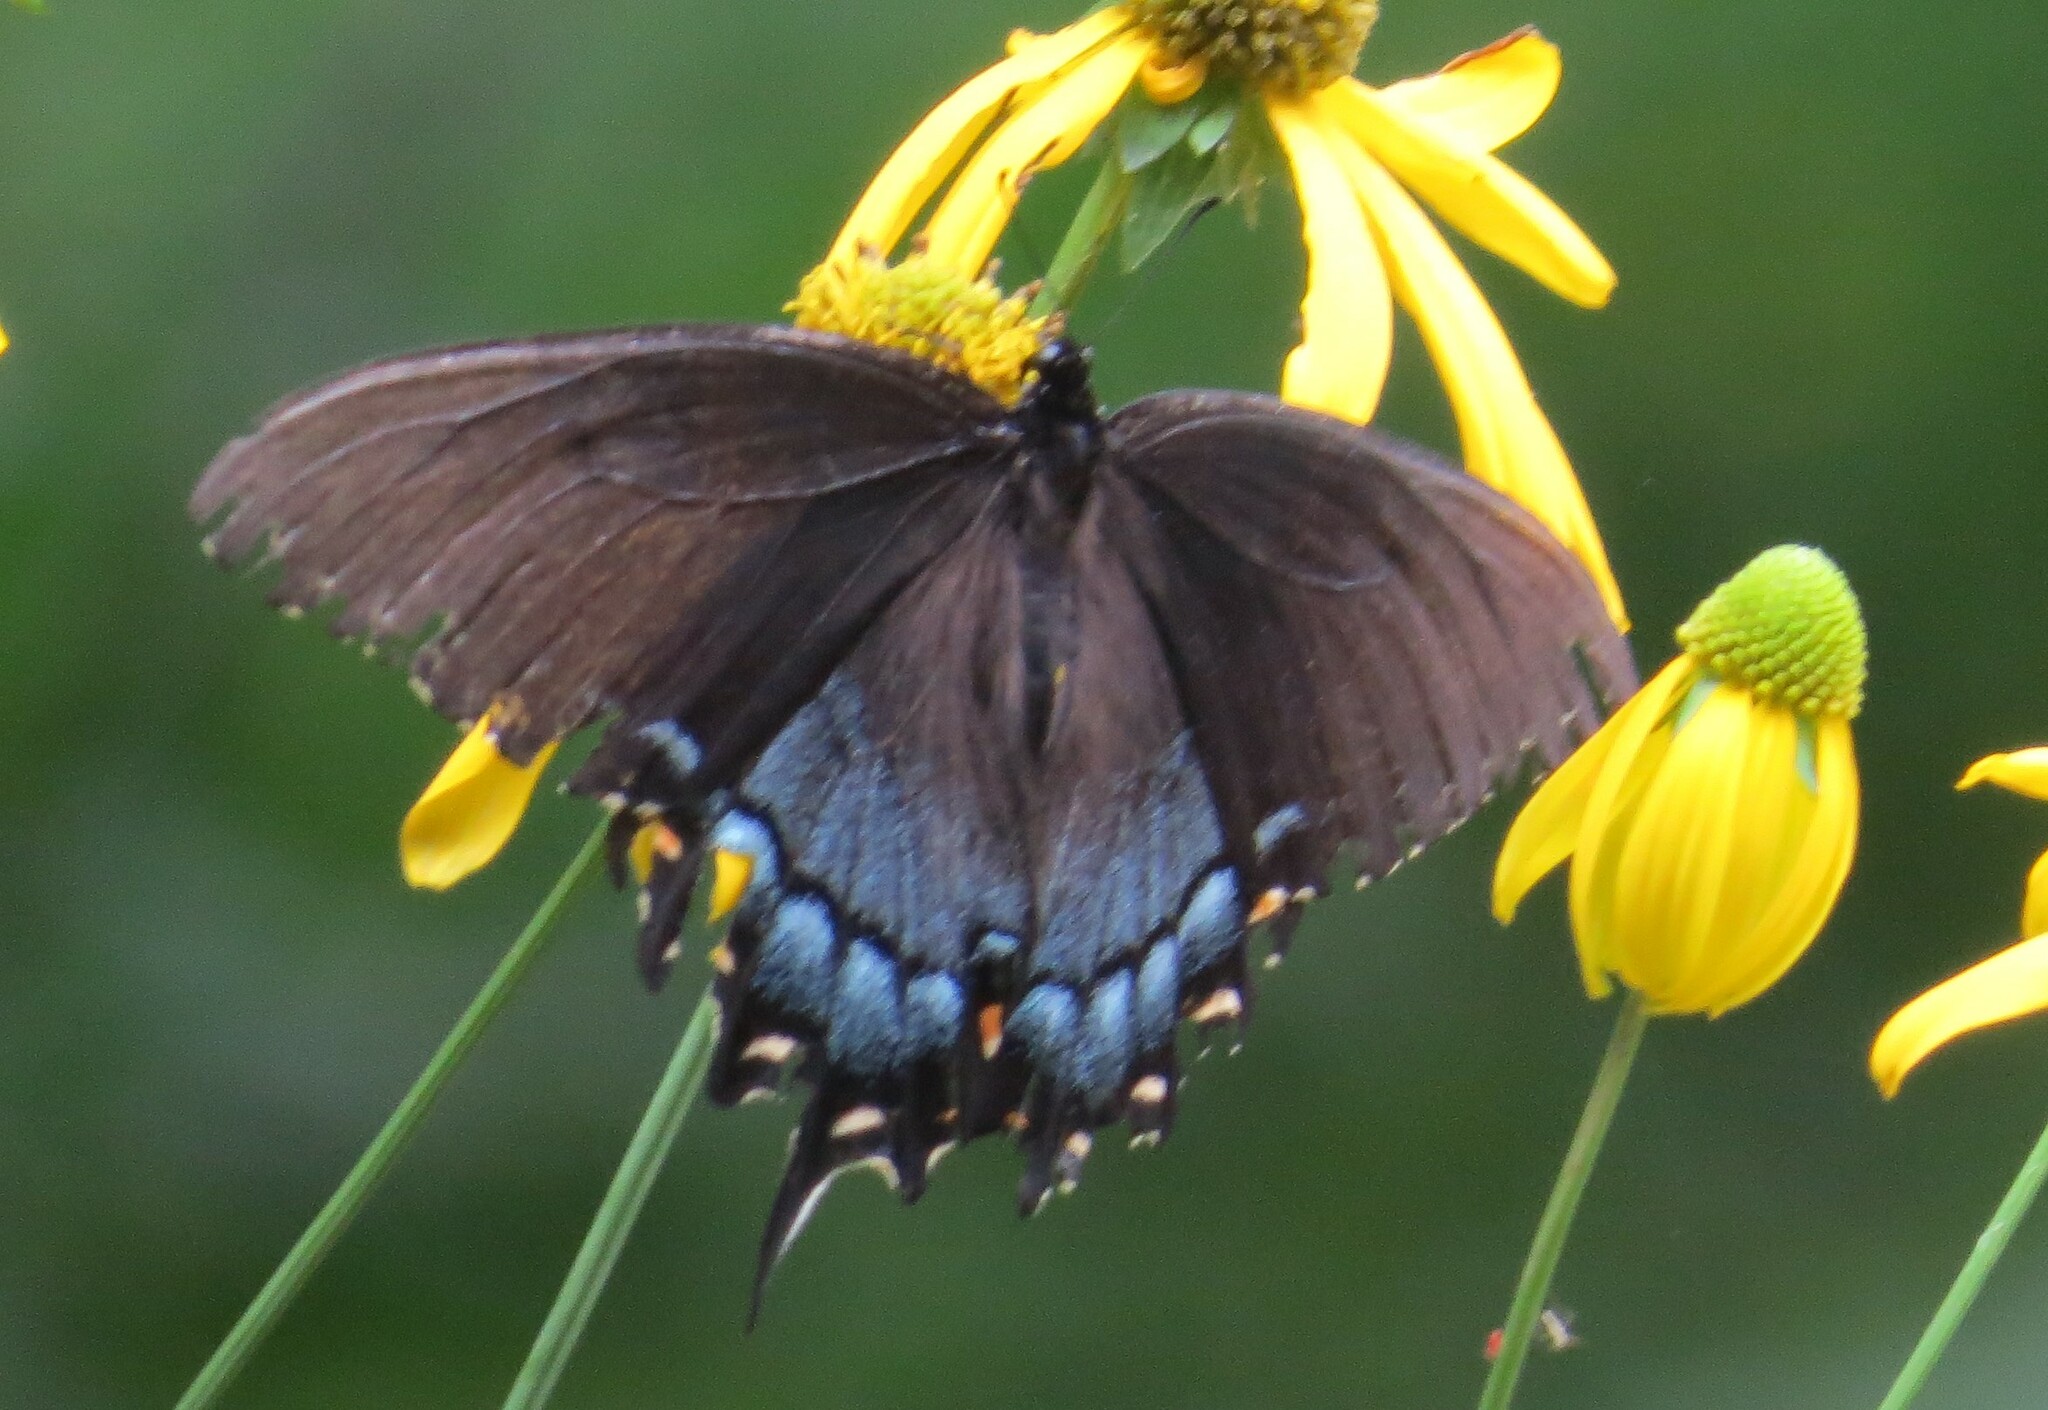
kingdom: Animalia
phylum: Arthropoda
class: Insecta
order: Lepidoptera
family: Papilionidae
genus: Papilio
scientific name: Papilio glaucus
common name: Tiger swallowtail
